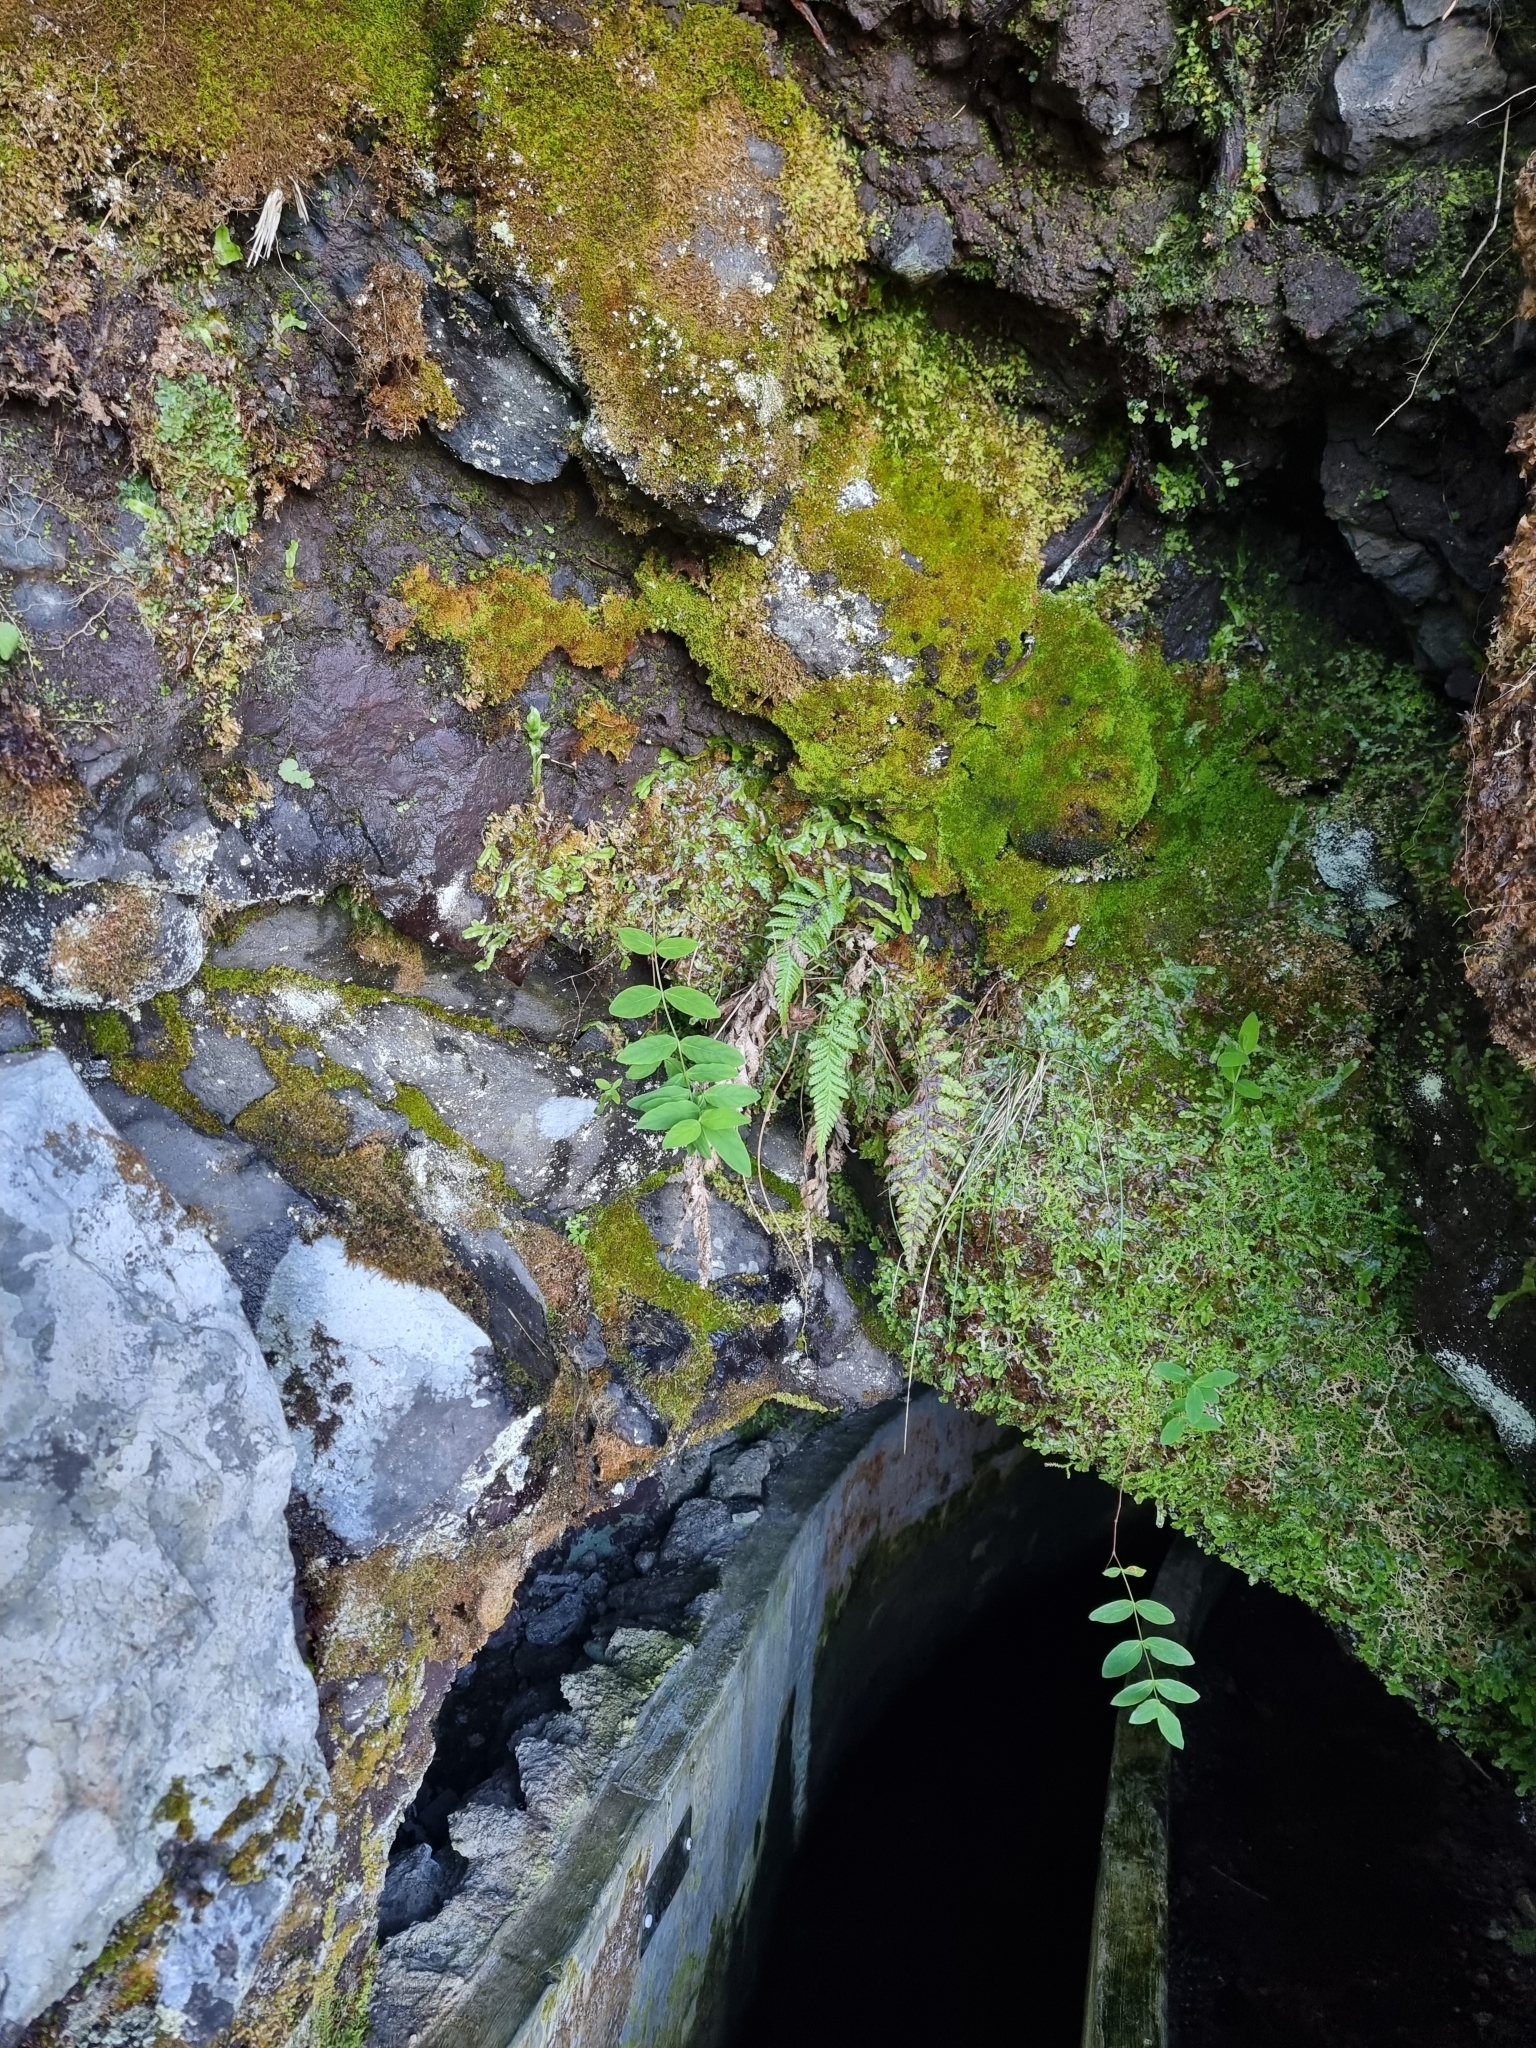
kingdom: Plantae
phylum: Tracheophyta
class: Magnoliopsida
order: Malpighiales
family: Hypericaceae
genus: Hypericum
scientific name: Hypericum grandifolium
